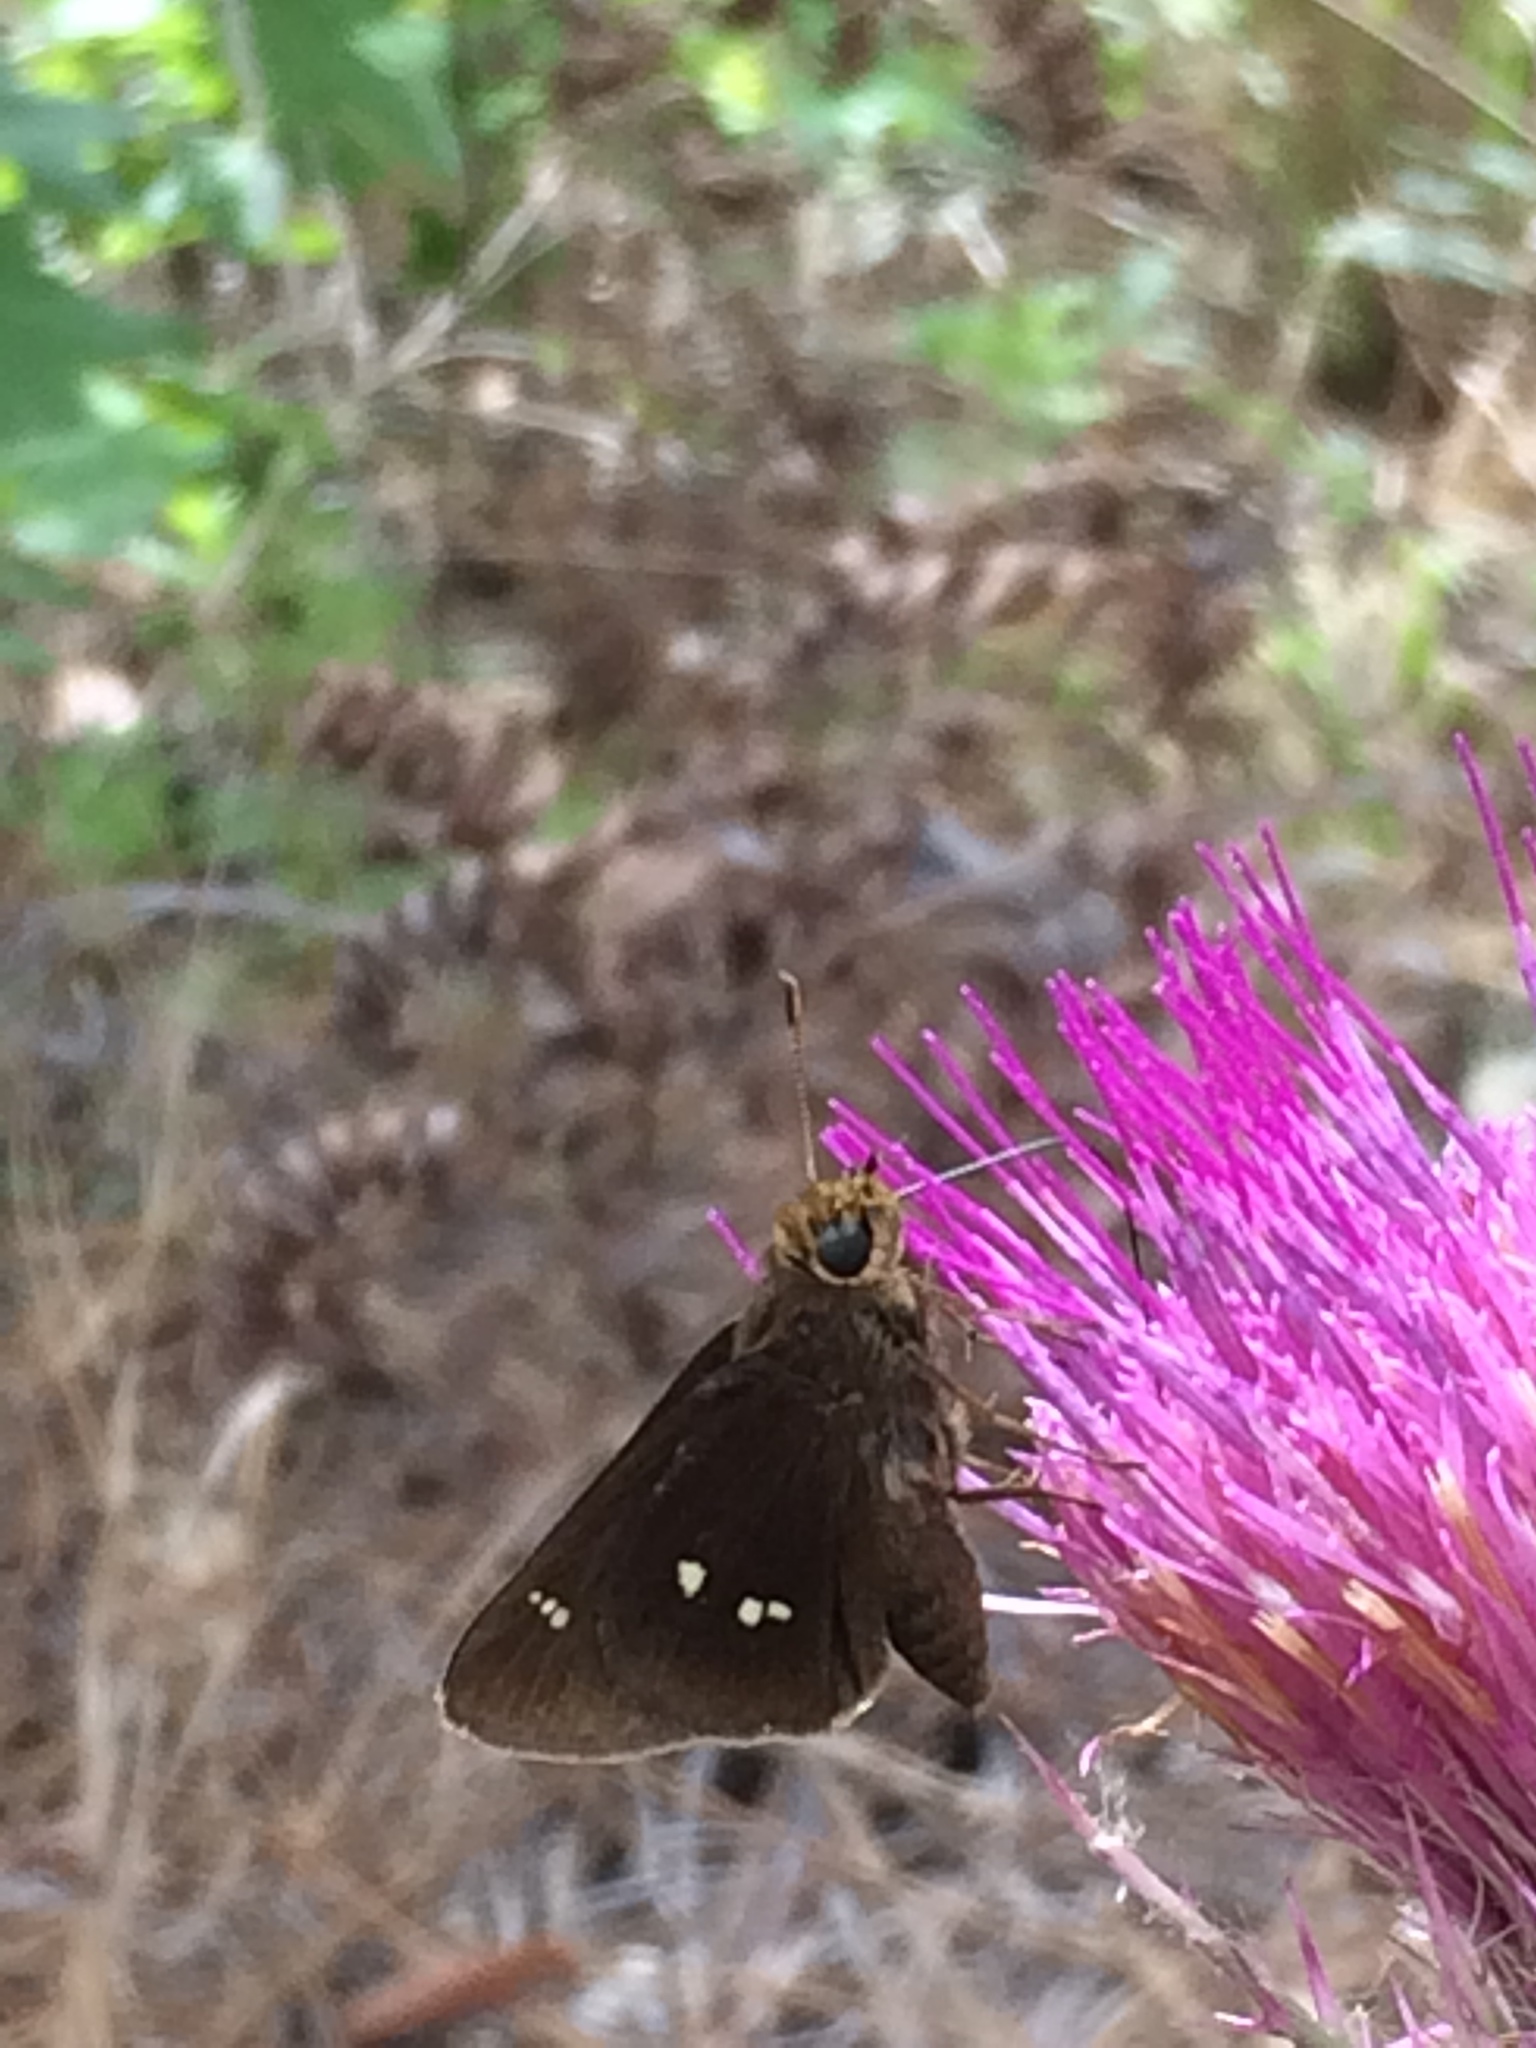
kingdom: Animalia
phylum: Arthropoda
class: Insecta
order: Lepidoptera
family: Hesperiidae
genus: Oligoria
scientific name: Oligoria maculata
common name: Twin-spot skipper
